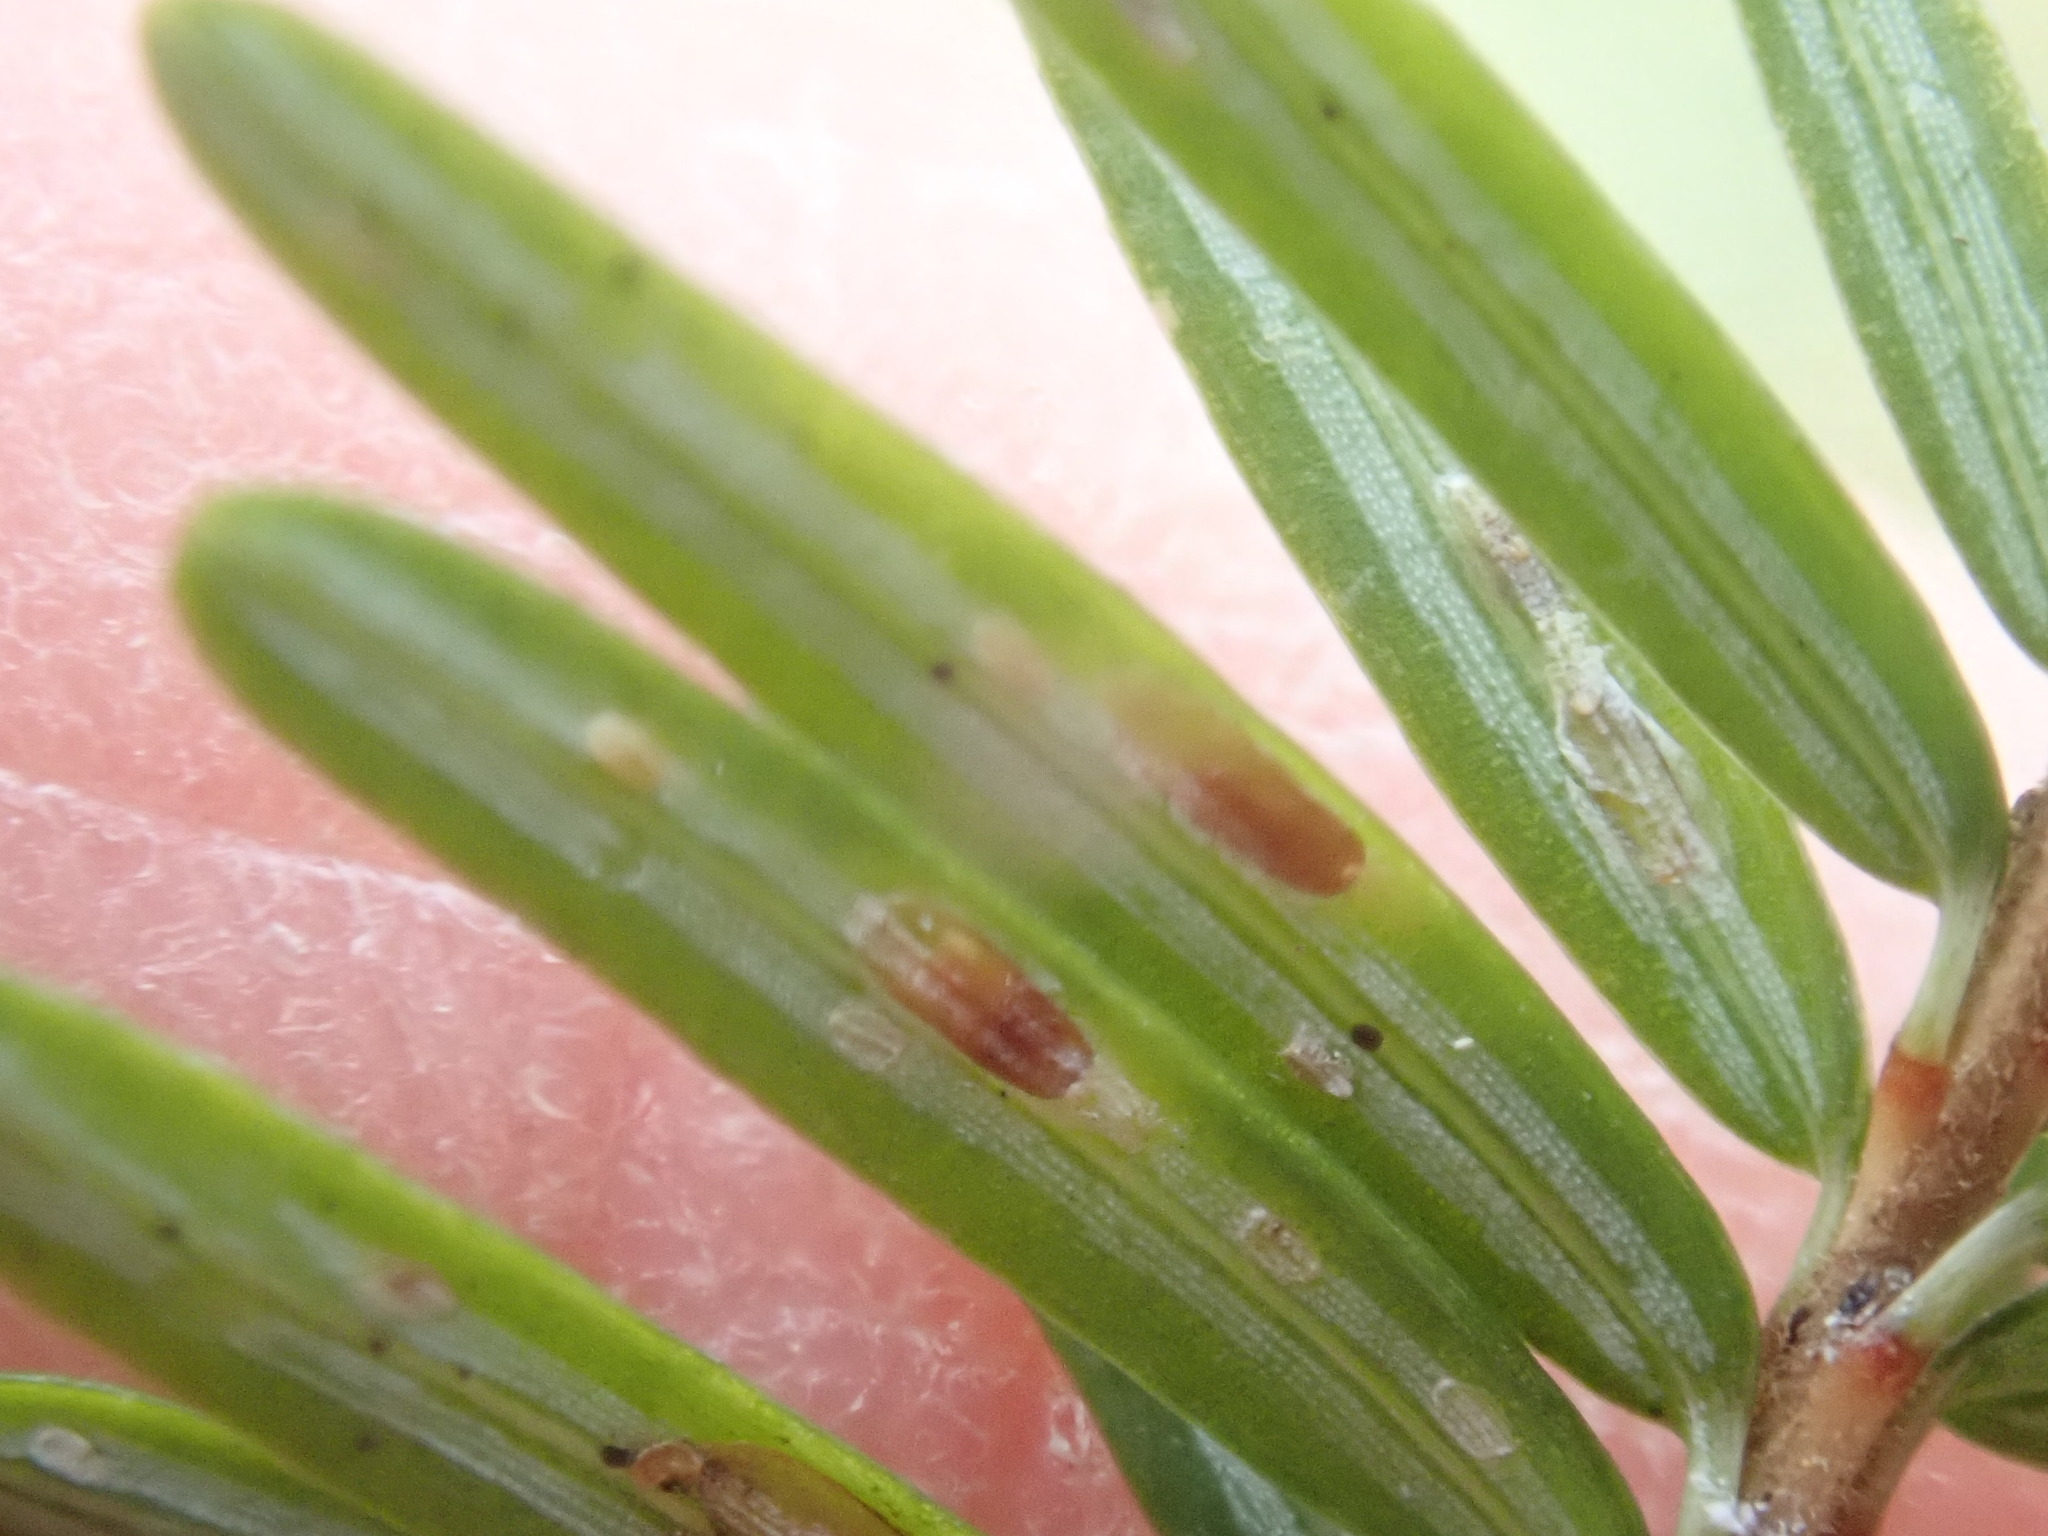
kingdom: Animalia
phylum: Arthropoda
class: Insecta
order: Hemiptera
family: Diaspididae
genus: Fiorinia
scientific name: Fiorinia externa
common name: Elongate hemlock scale
